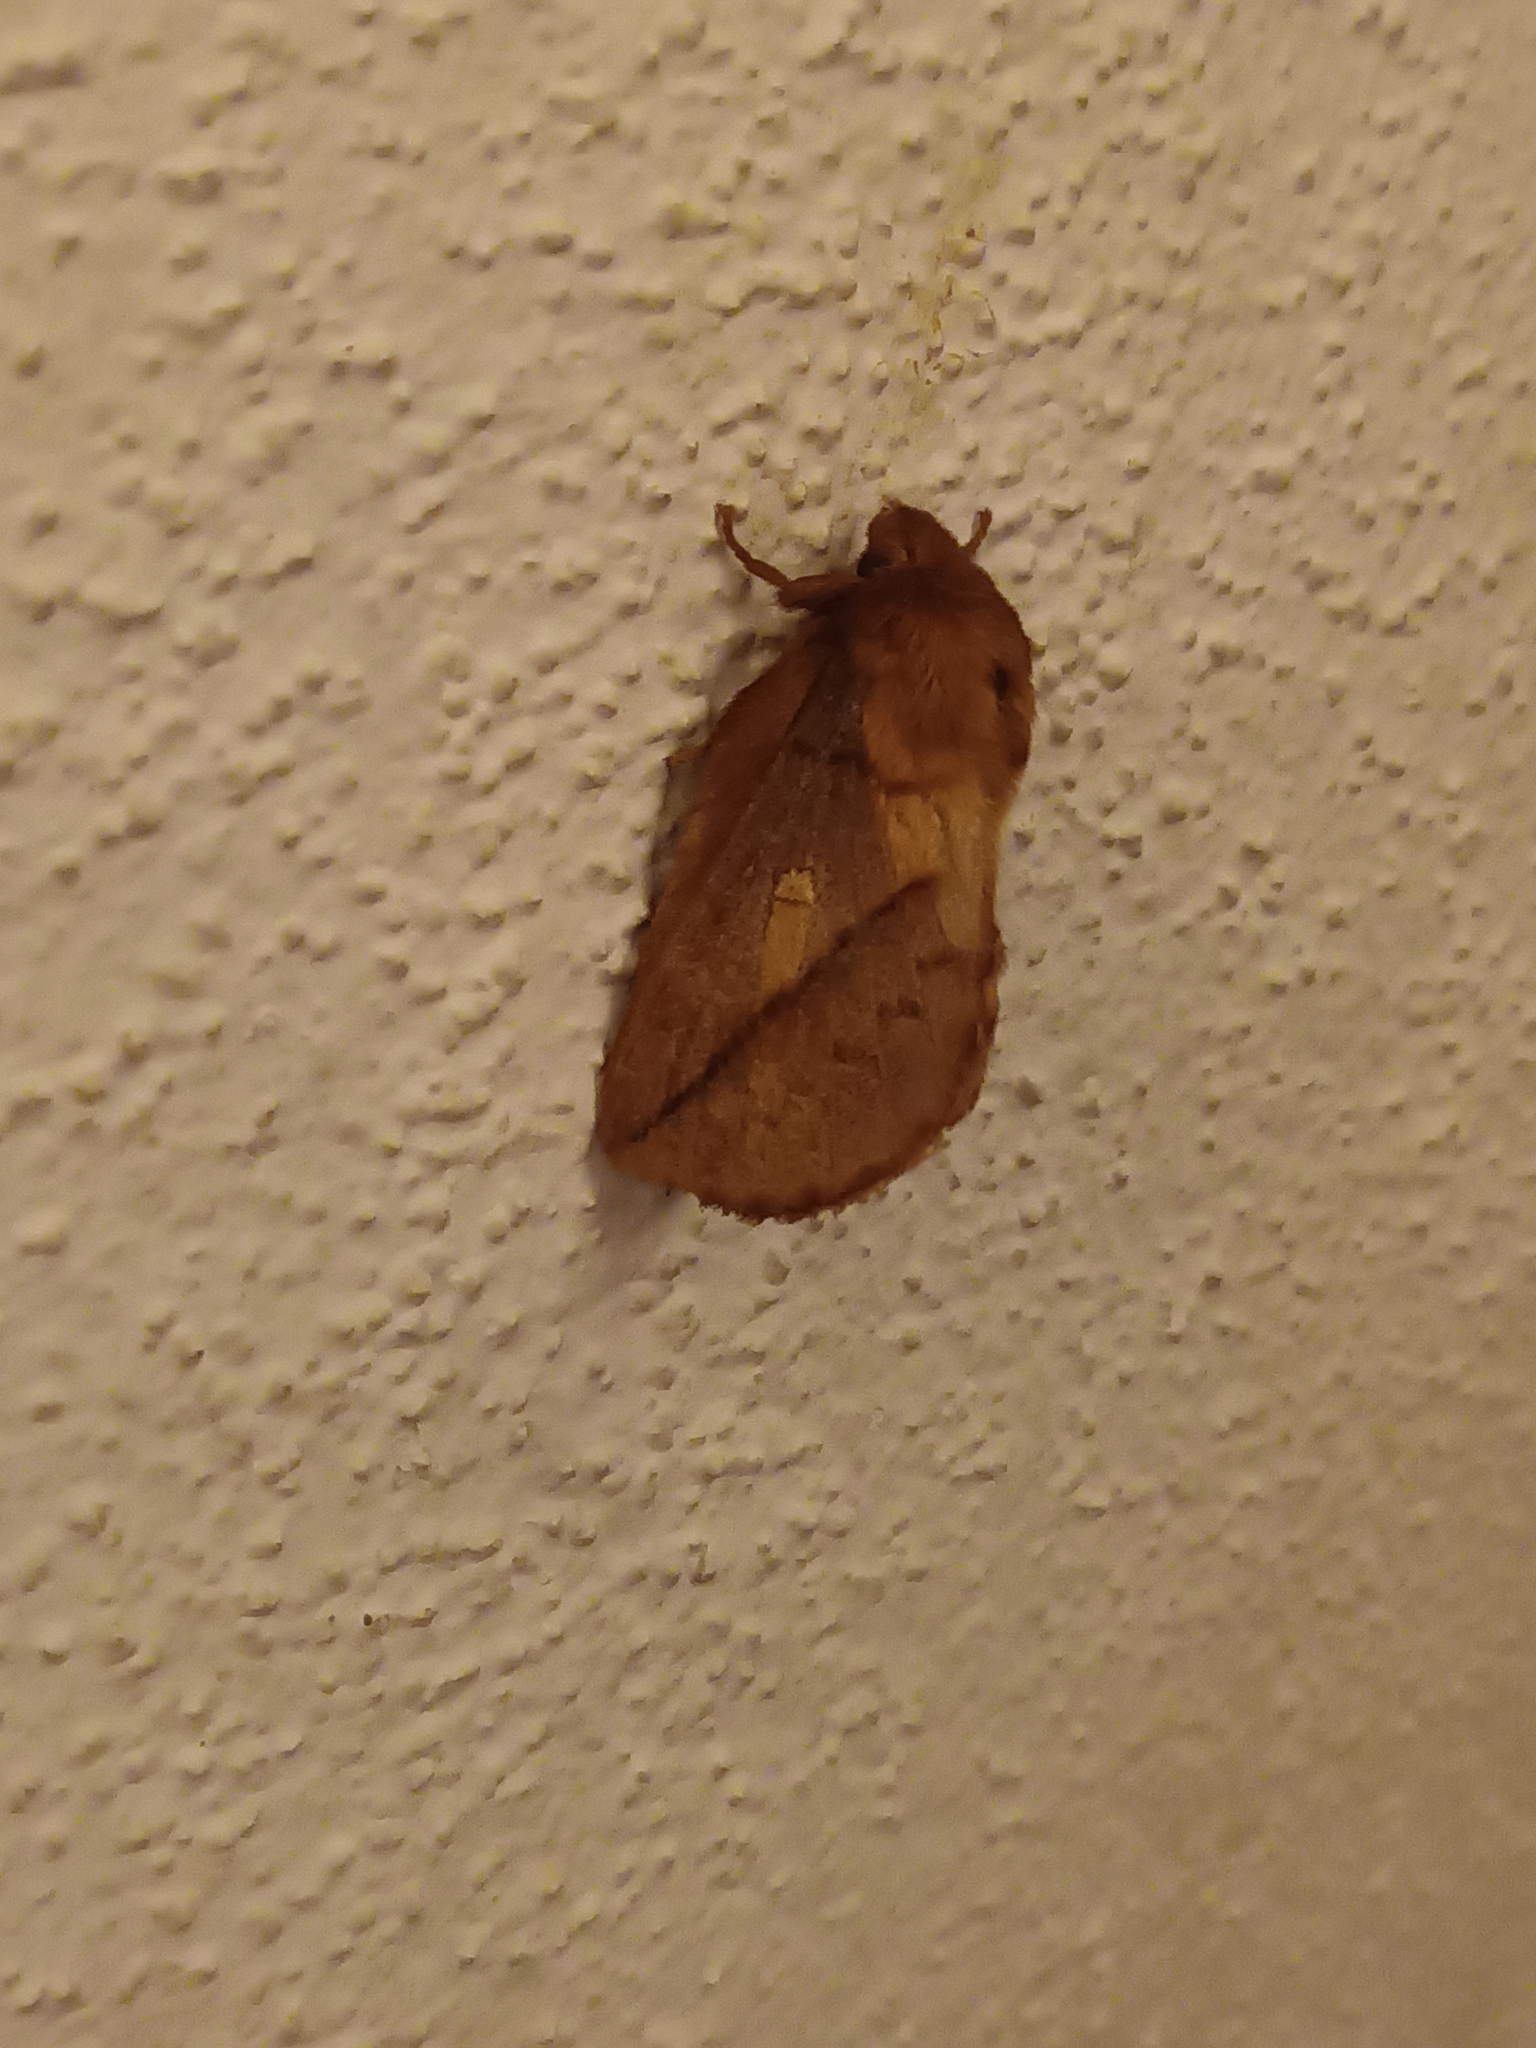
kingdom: Animalia
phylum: Arthropoda
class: Insecta
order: Lepidoptera
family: Lasiocampidae
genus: Euthrix
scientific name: Euthrix potatoria
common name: Drinker
